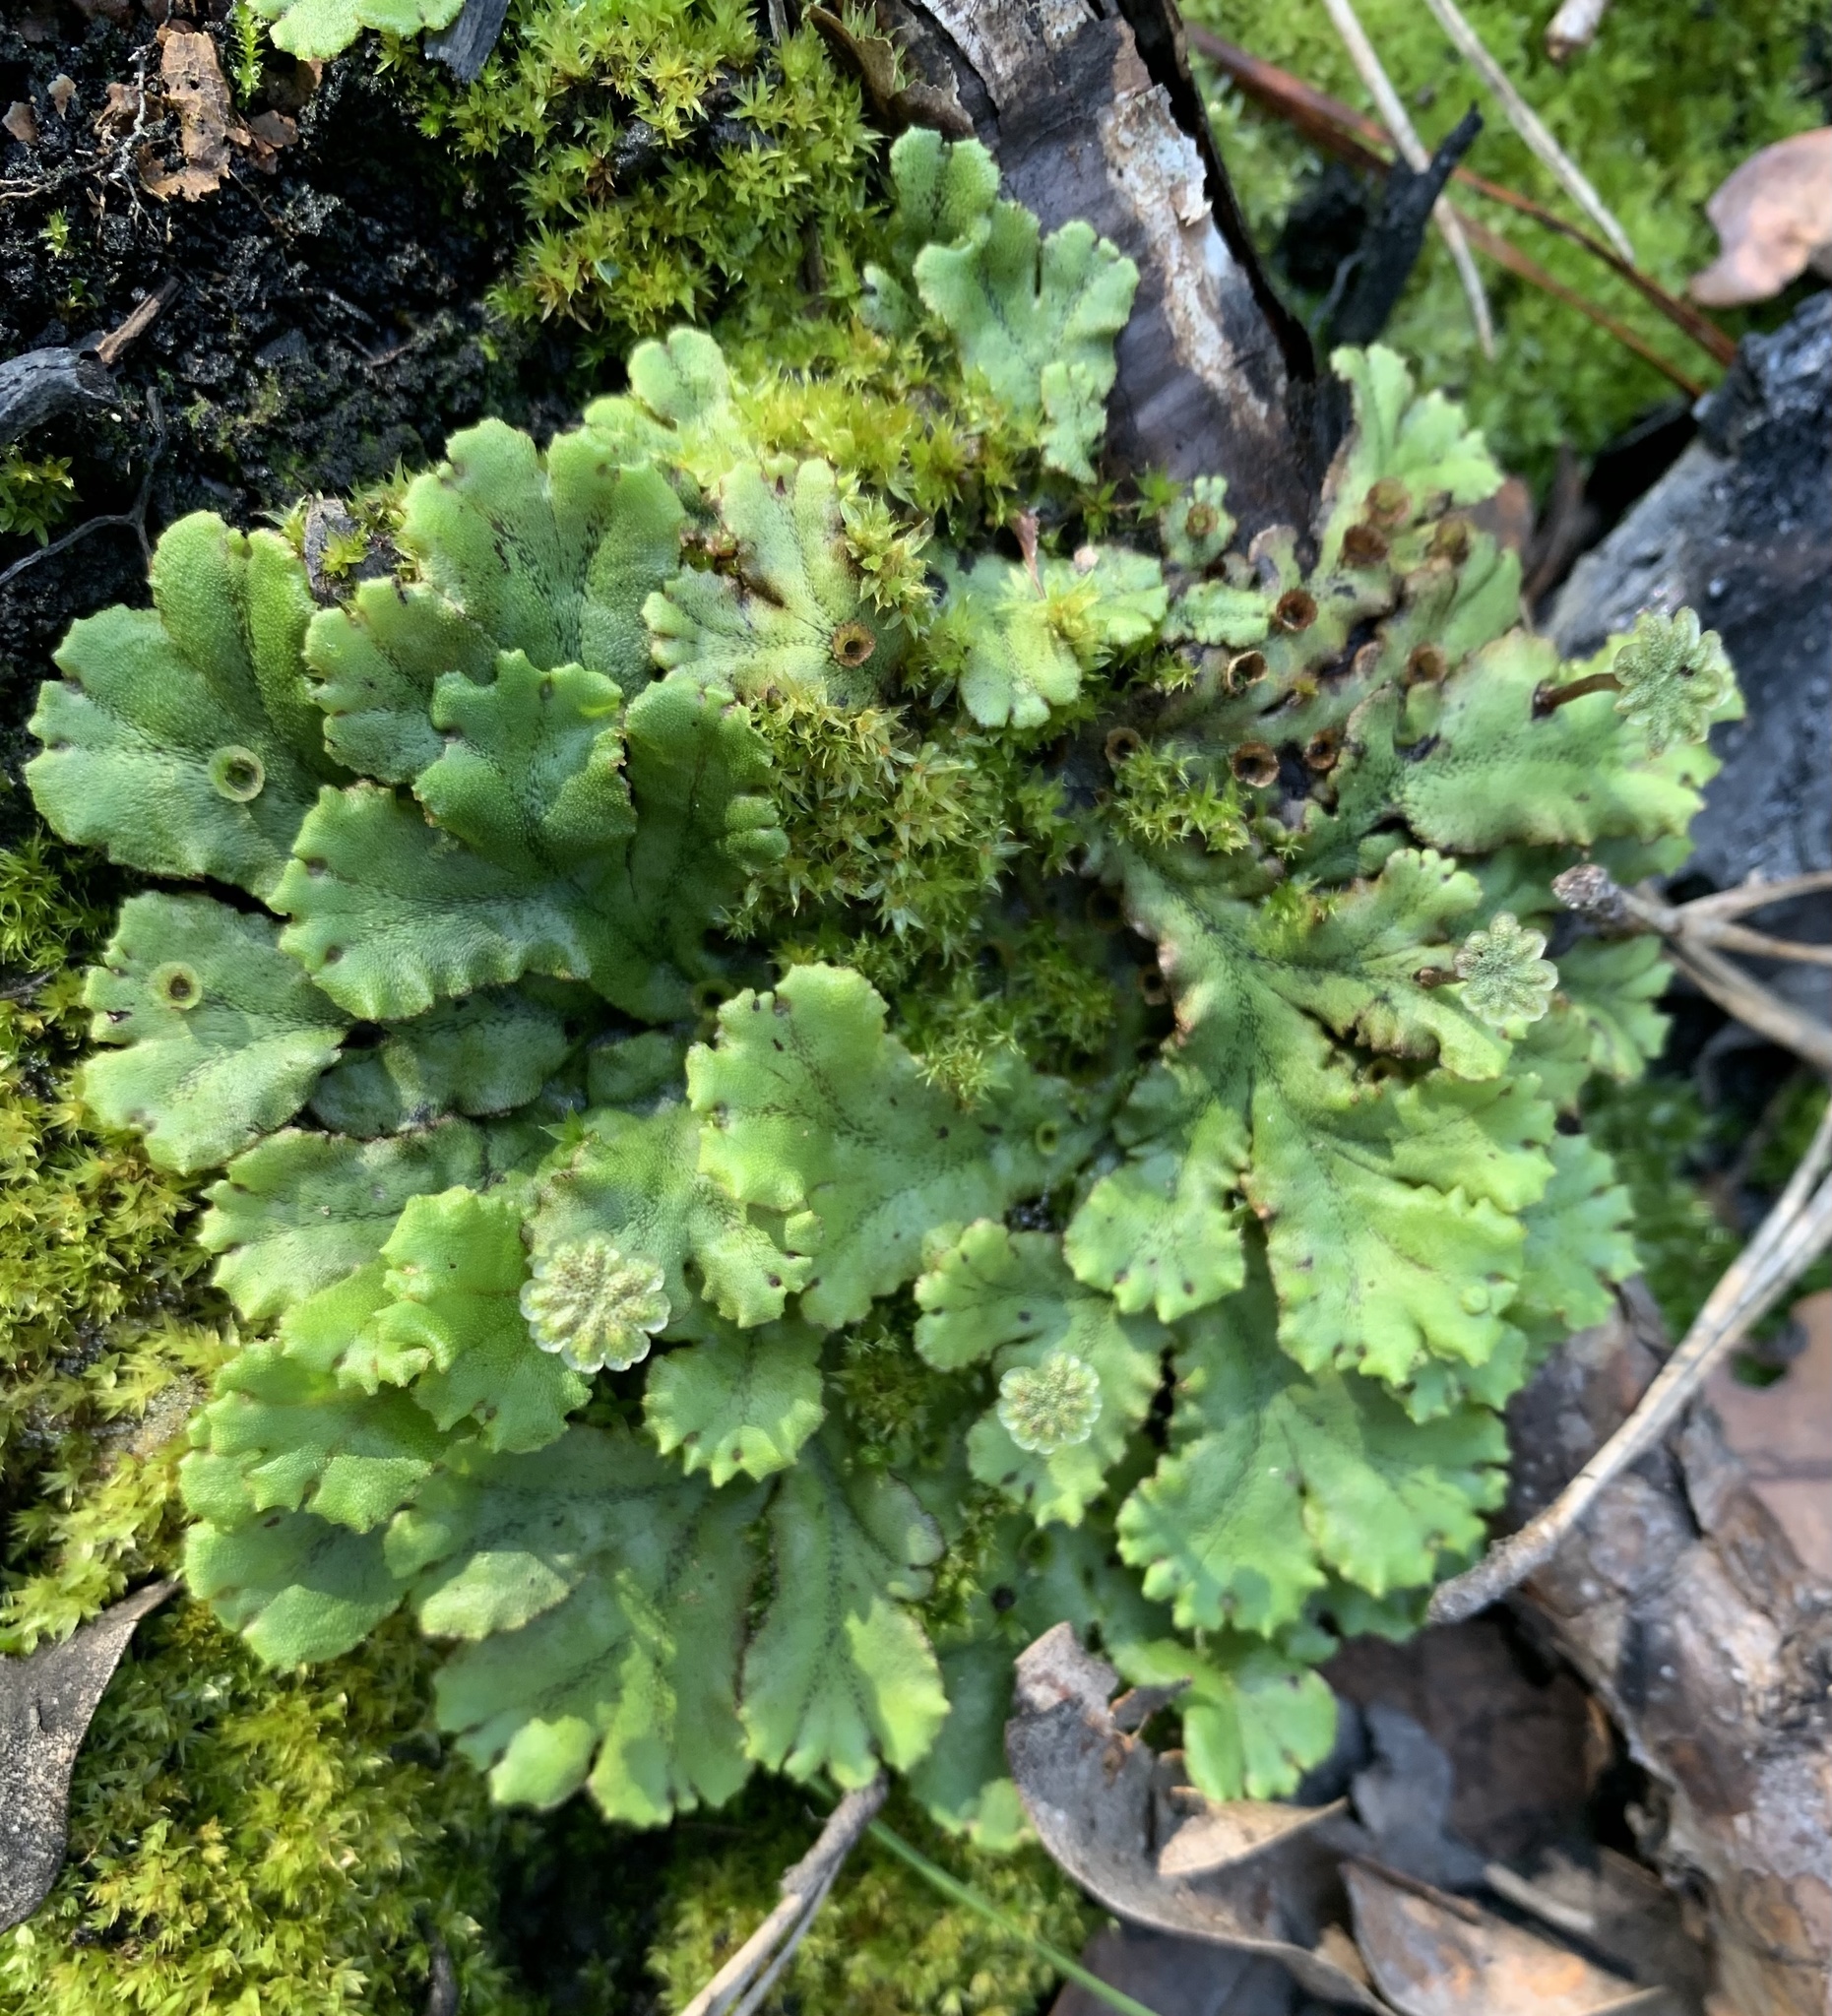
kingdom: Plantae
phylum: Marchantiophyta
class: Marchantiopsida
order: Marchantiales
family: Marchantiaceae
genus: Marchantia
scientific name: Marchantia polymorpha
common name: Common liverwort
